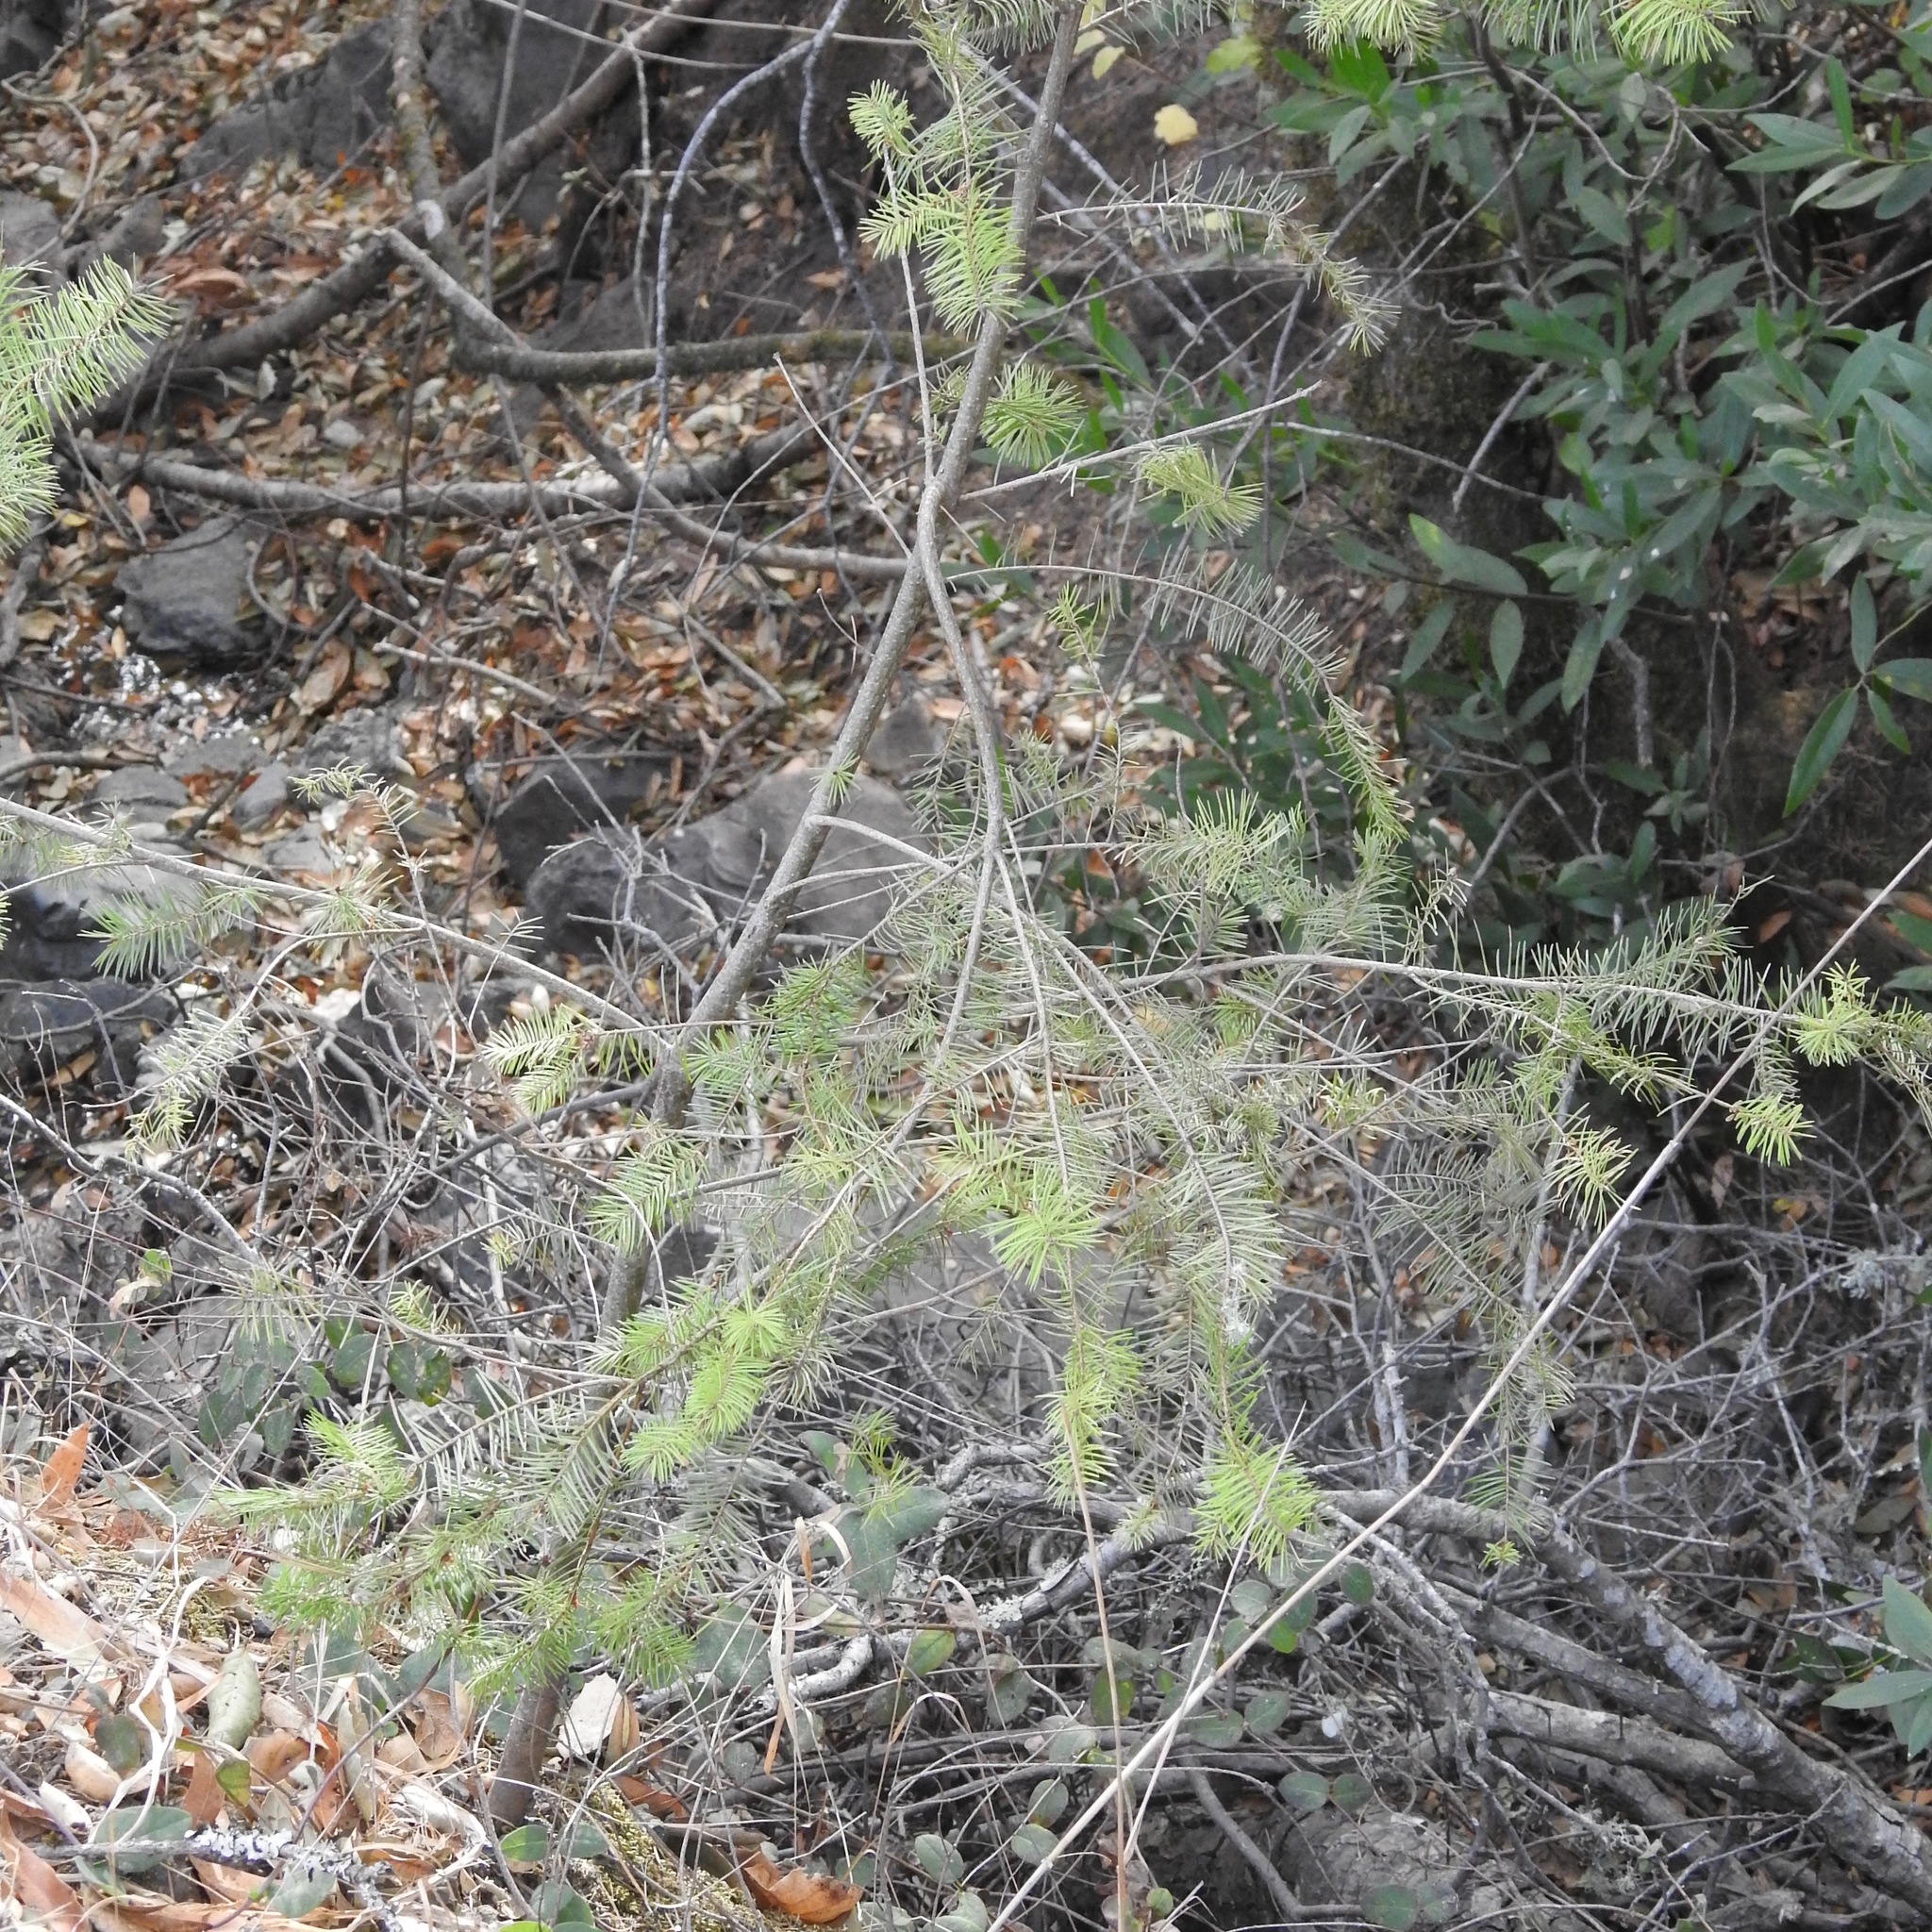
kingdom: Plantae
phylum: Tracheophyta
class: Pinopsida
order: Pinales
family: Pinaceae
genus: Pseudotsuga
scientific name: Pseudotsuga menziesii
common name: Douglas fir
